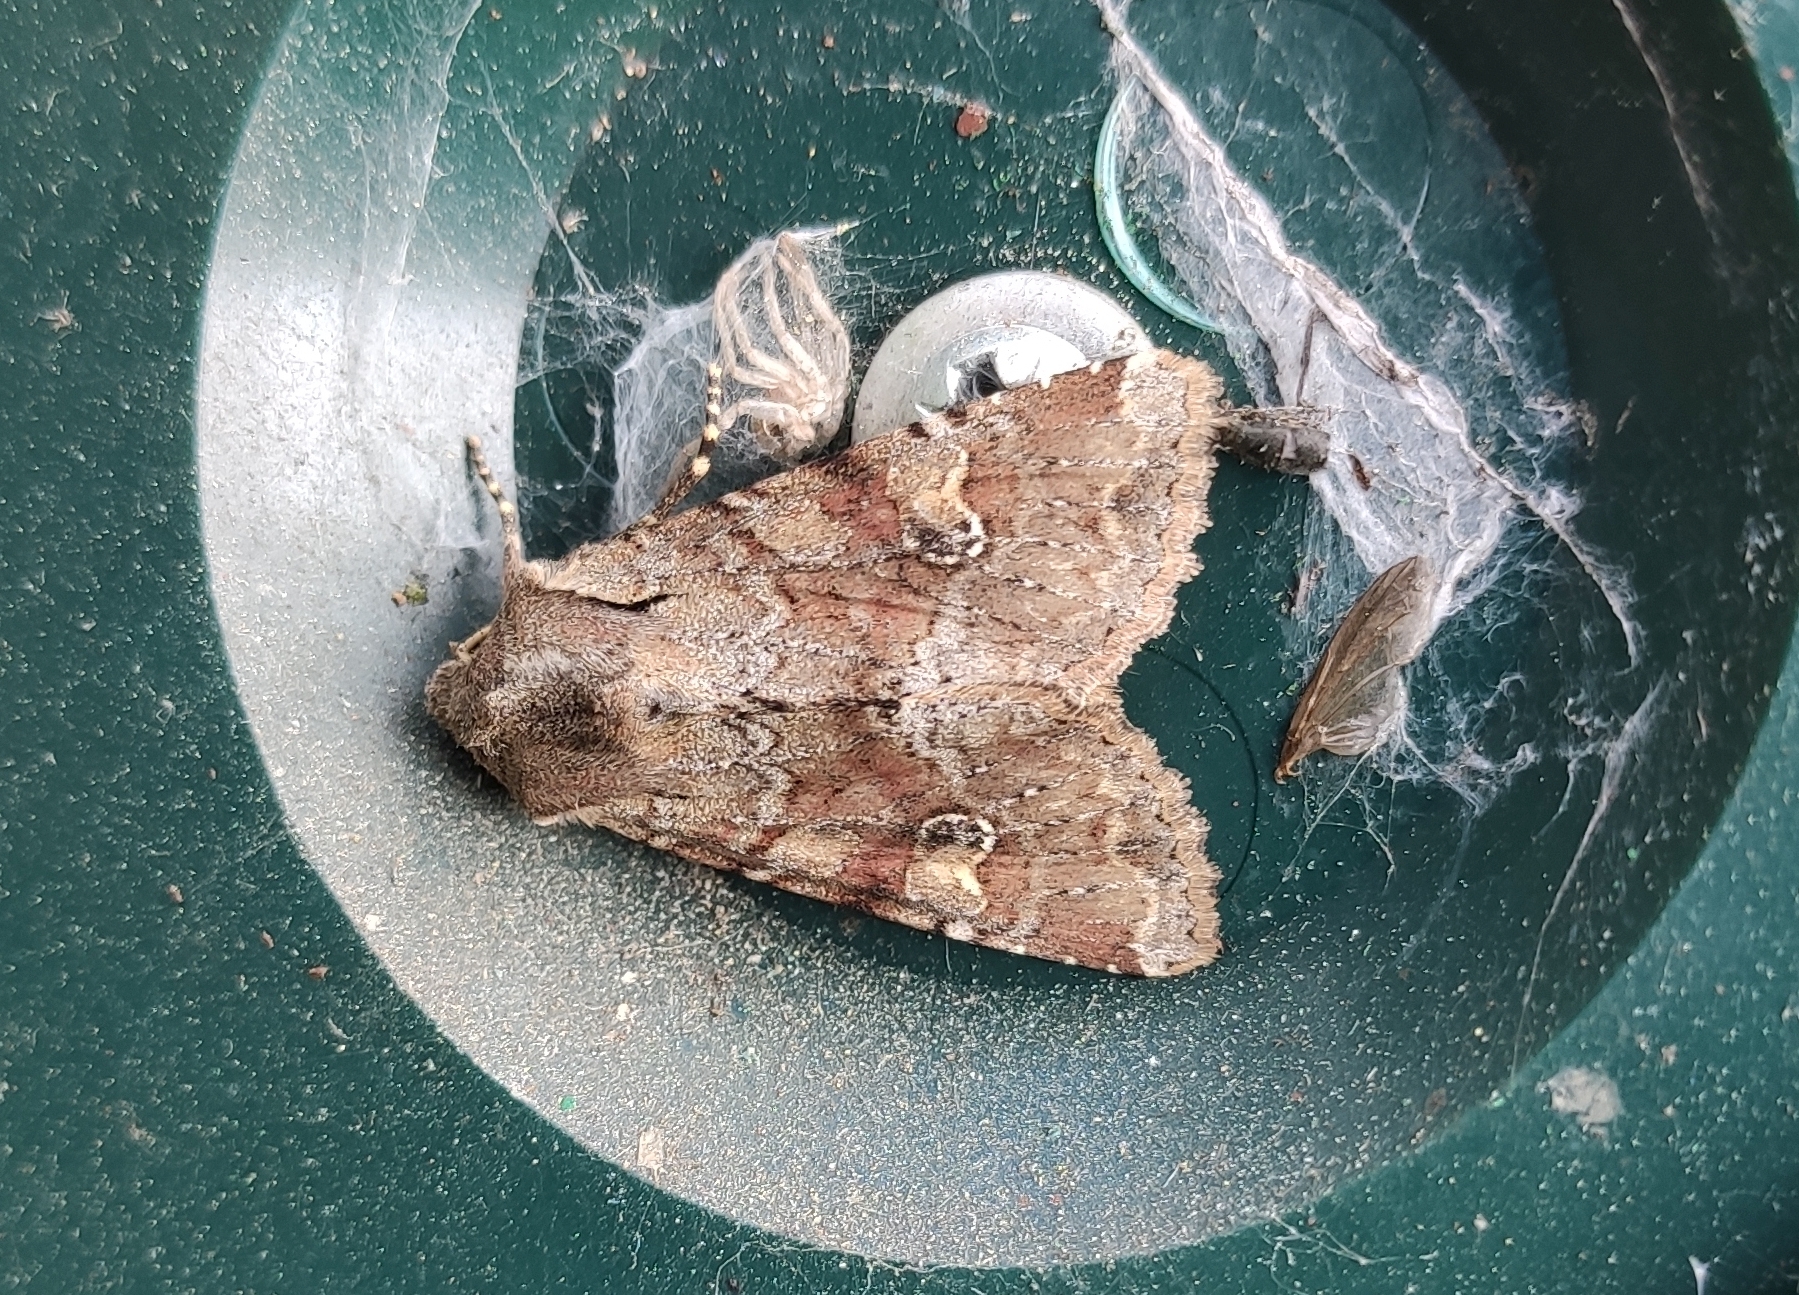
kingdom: Animalia
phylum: Arthropoda
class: Insecta
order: Lepidoptera
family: Noctuidae
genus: Apamea
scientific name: Apamea sordens
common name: Rustic shoulder-knot
